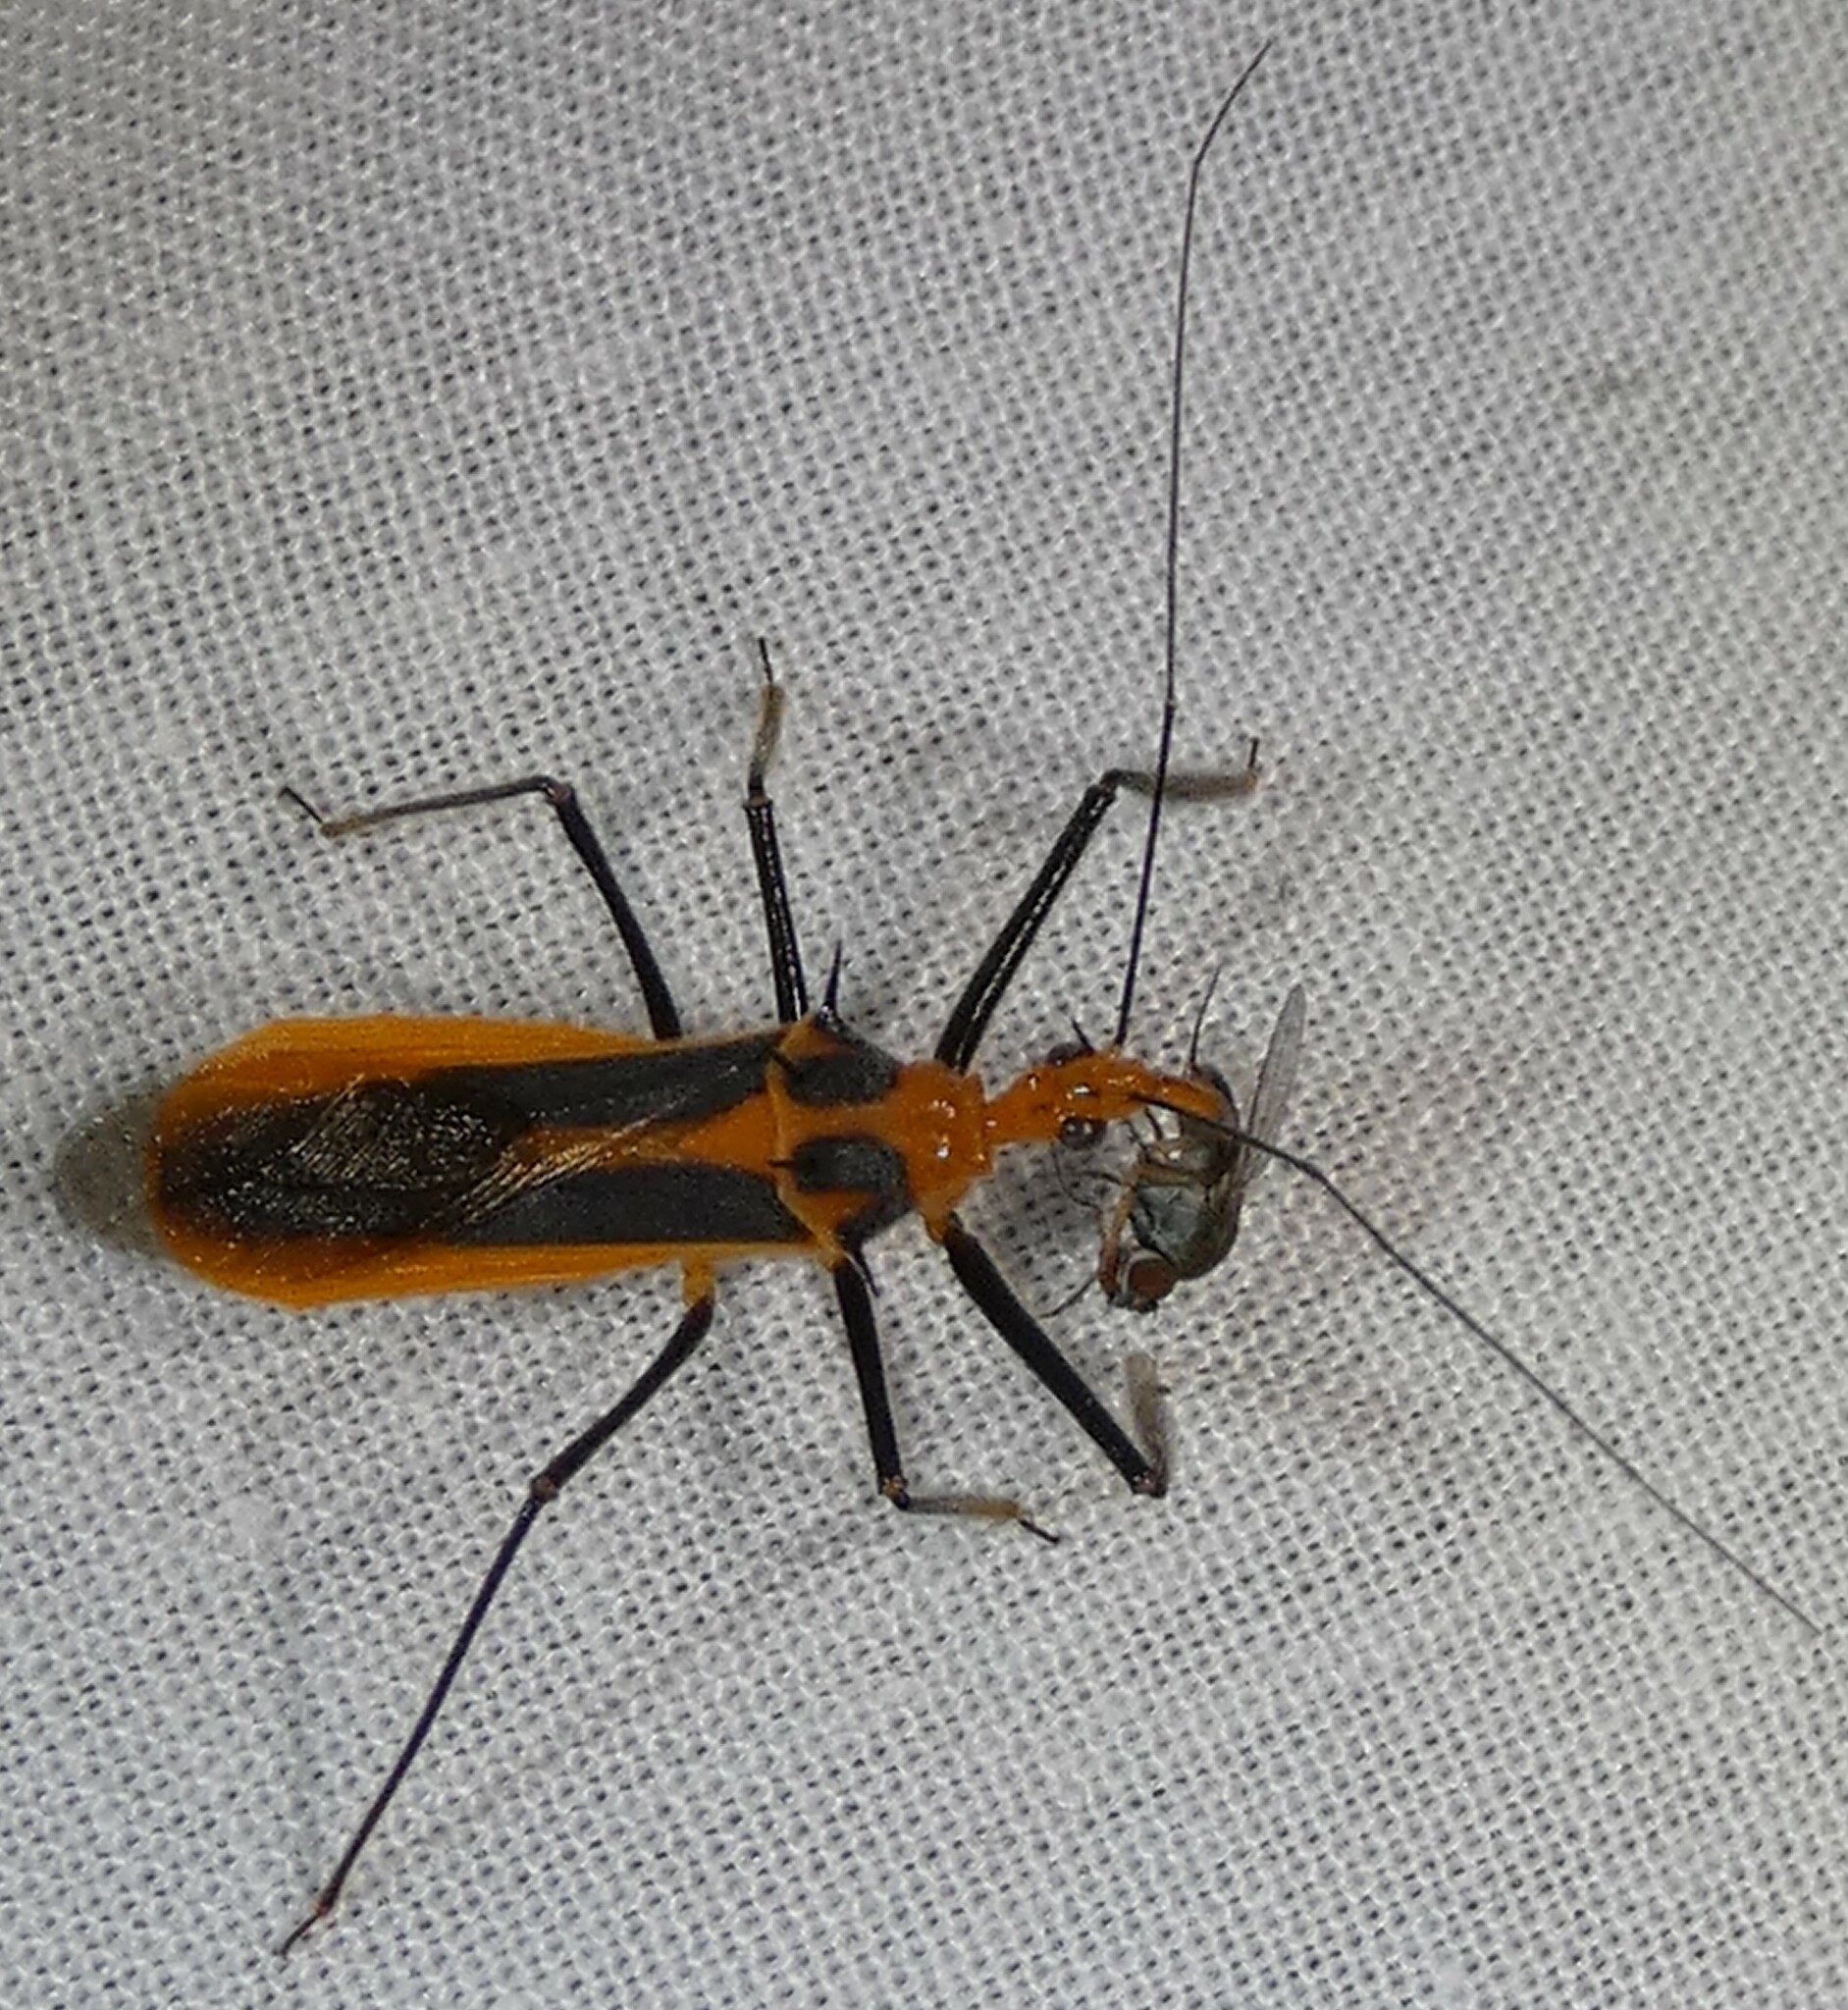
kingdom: Animalia
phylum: Arthropoda
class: Insecta
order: Hemiptera
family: Reduviidae
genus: Repipta
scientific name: Repipta taurus
